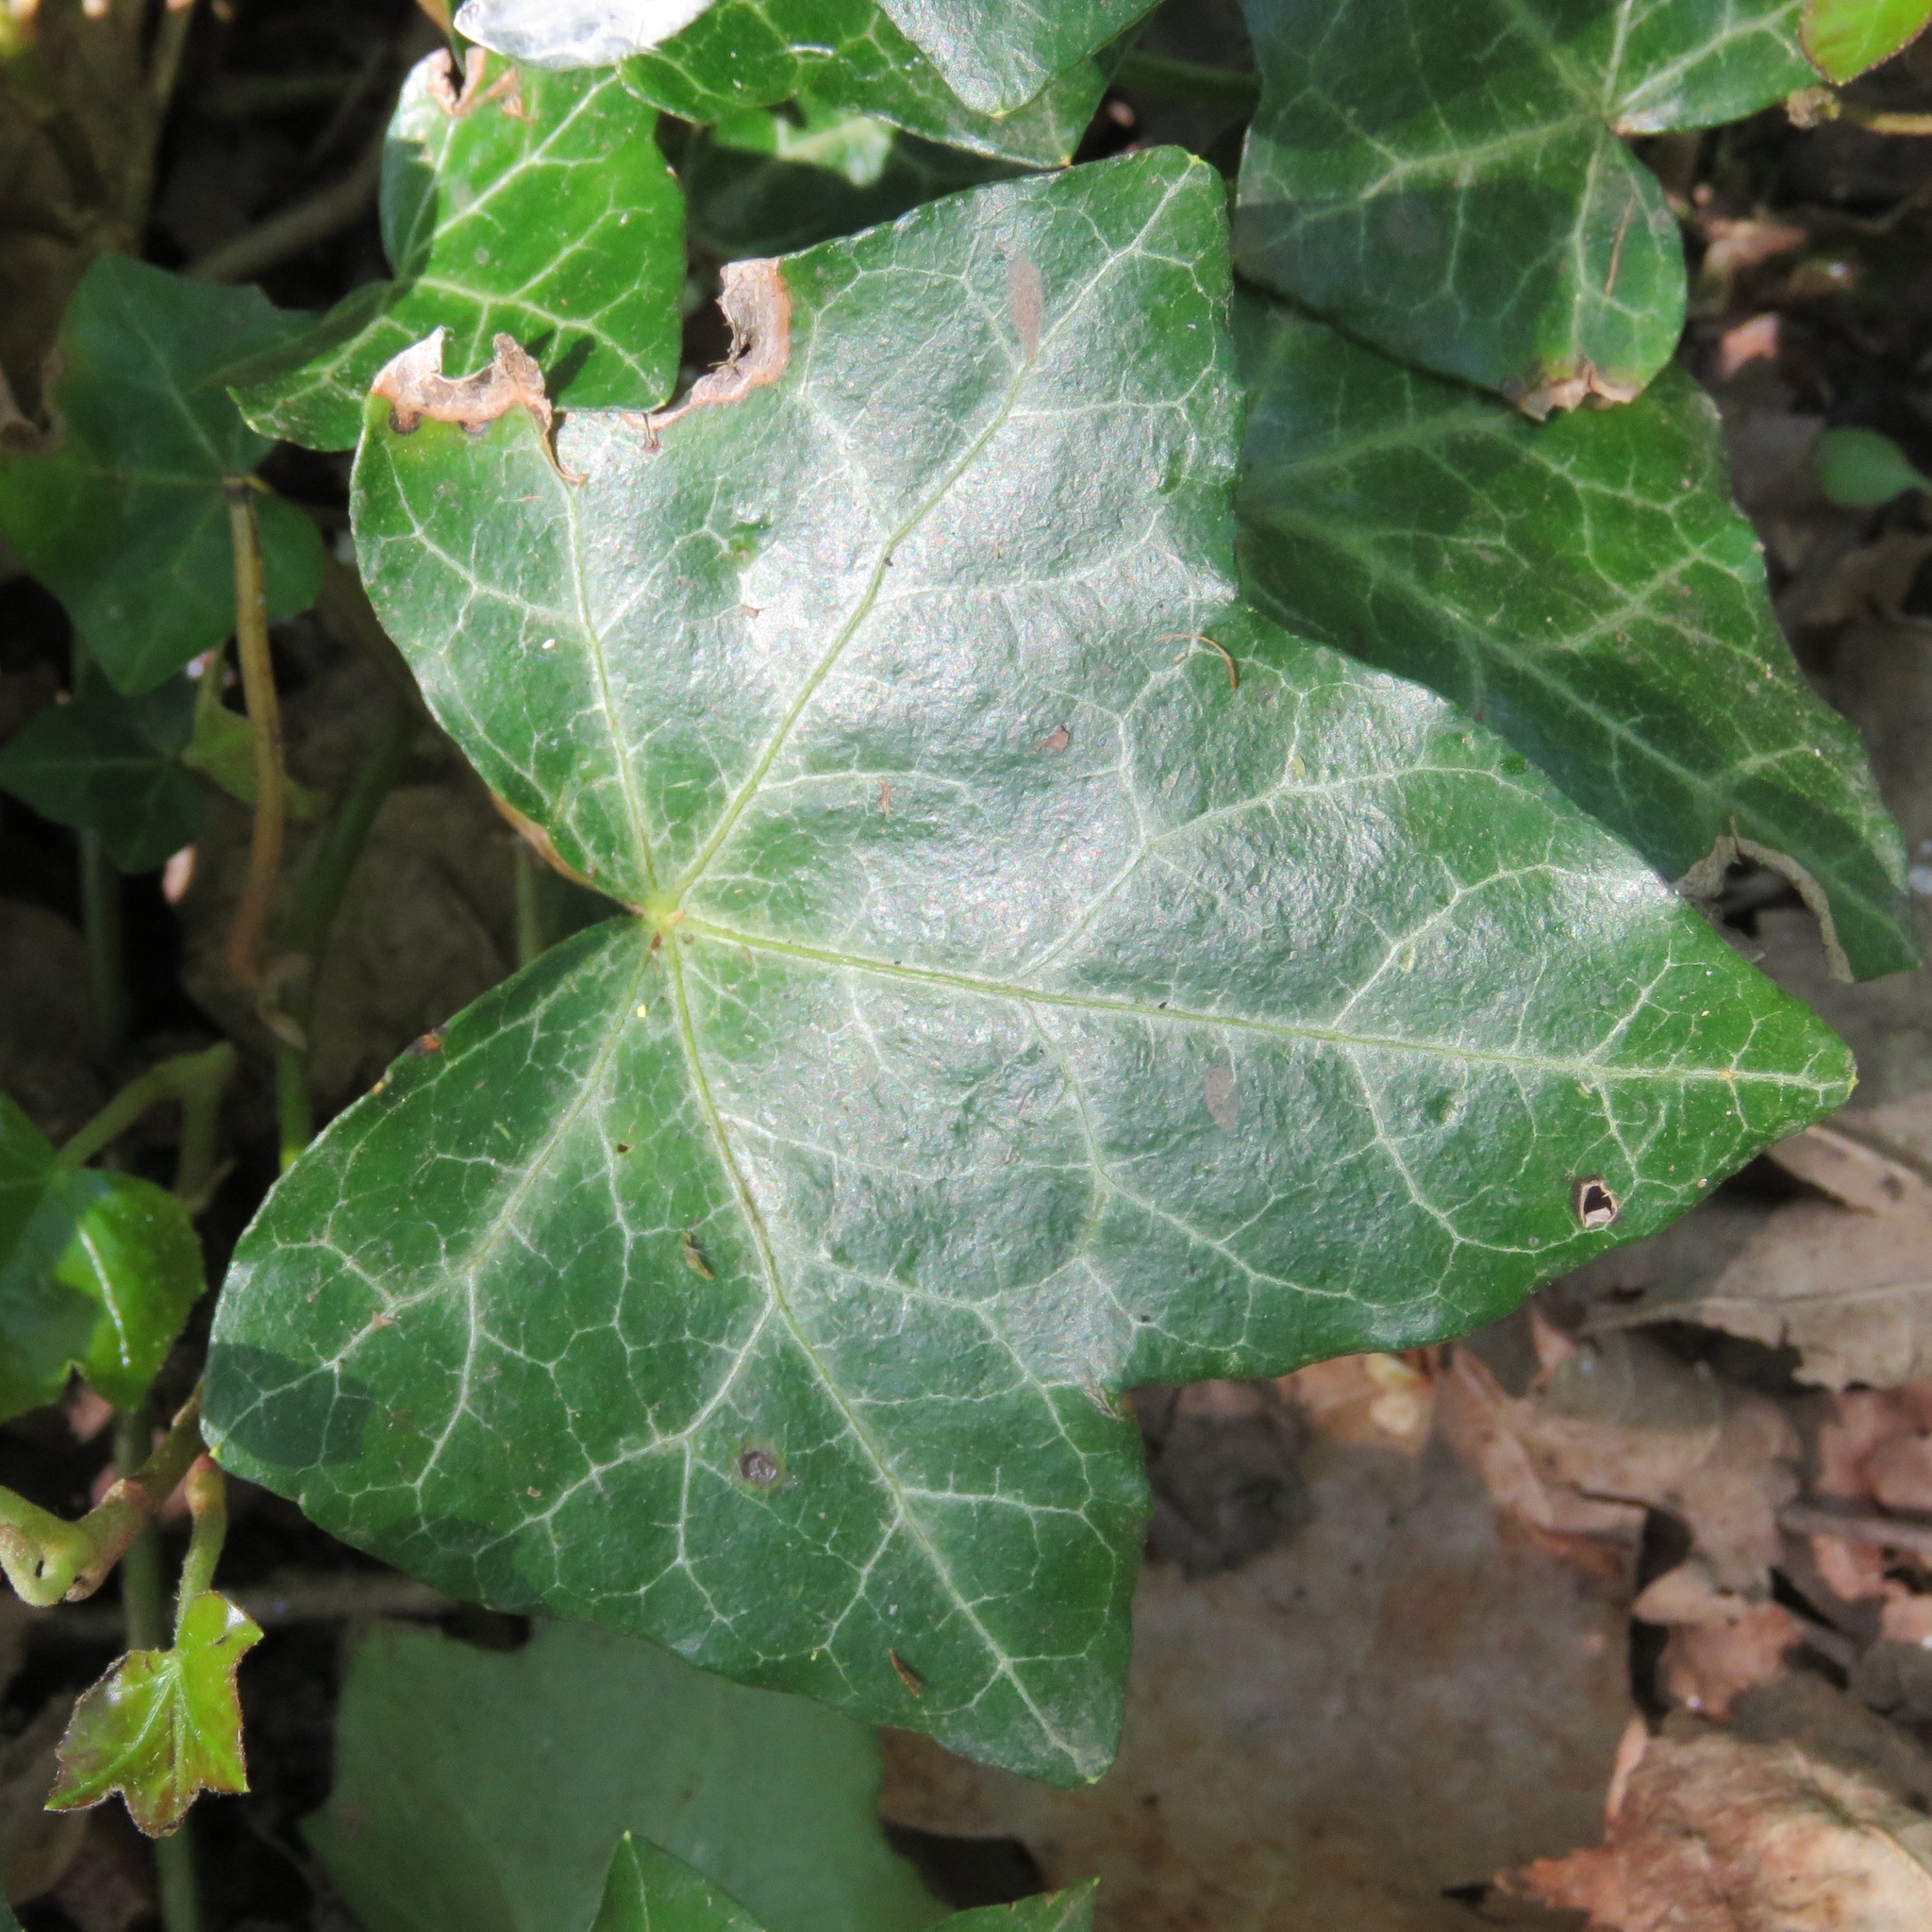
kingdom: Plantae
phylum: Tracheophyta
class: Magnoliopsida
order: Apiales
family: Araliaceae
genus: Hedera
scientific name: Hedera helix
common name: Ivy
